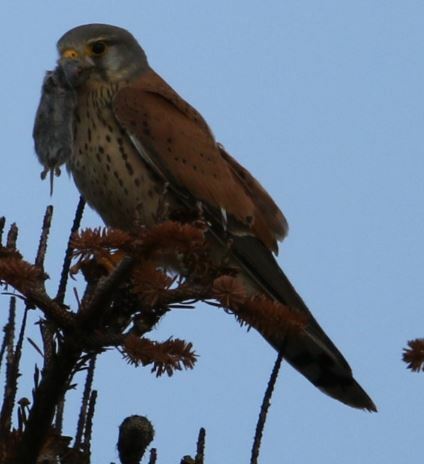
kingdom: Animalia
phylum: Chordata
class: Aves
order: Falconiformes
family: Falconidae
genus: Falco
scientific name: Falco tinnunculus
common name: Common kestrel
